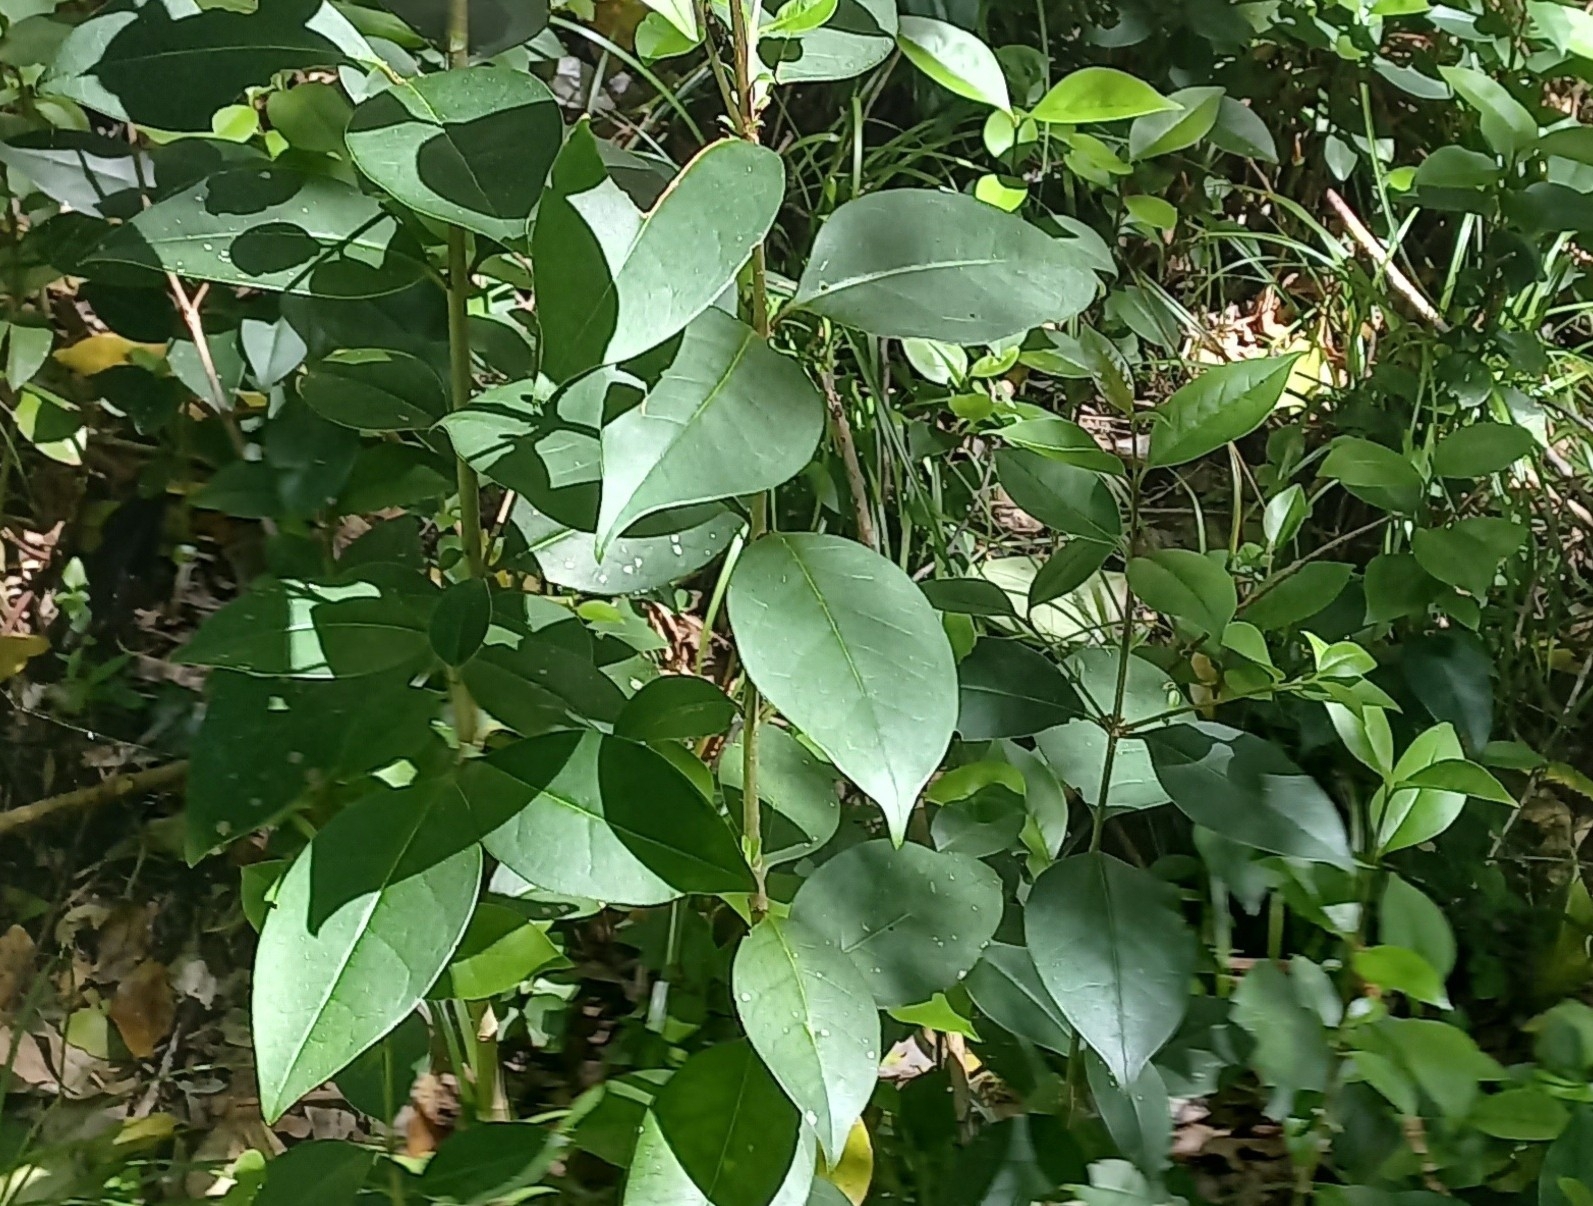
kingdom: Plantae
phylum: Tracheophyta
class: Magnoliopsida
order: Lamiales
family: Oleaceae
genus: Ligustrum
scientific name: Ligustrum lucidum
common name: Glossy privet
